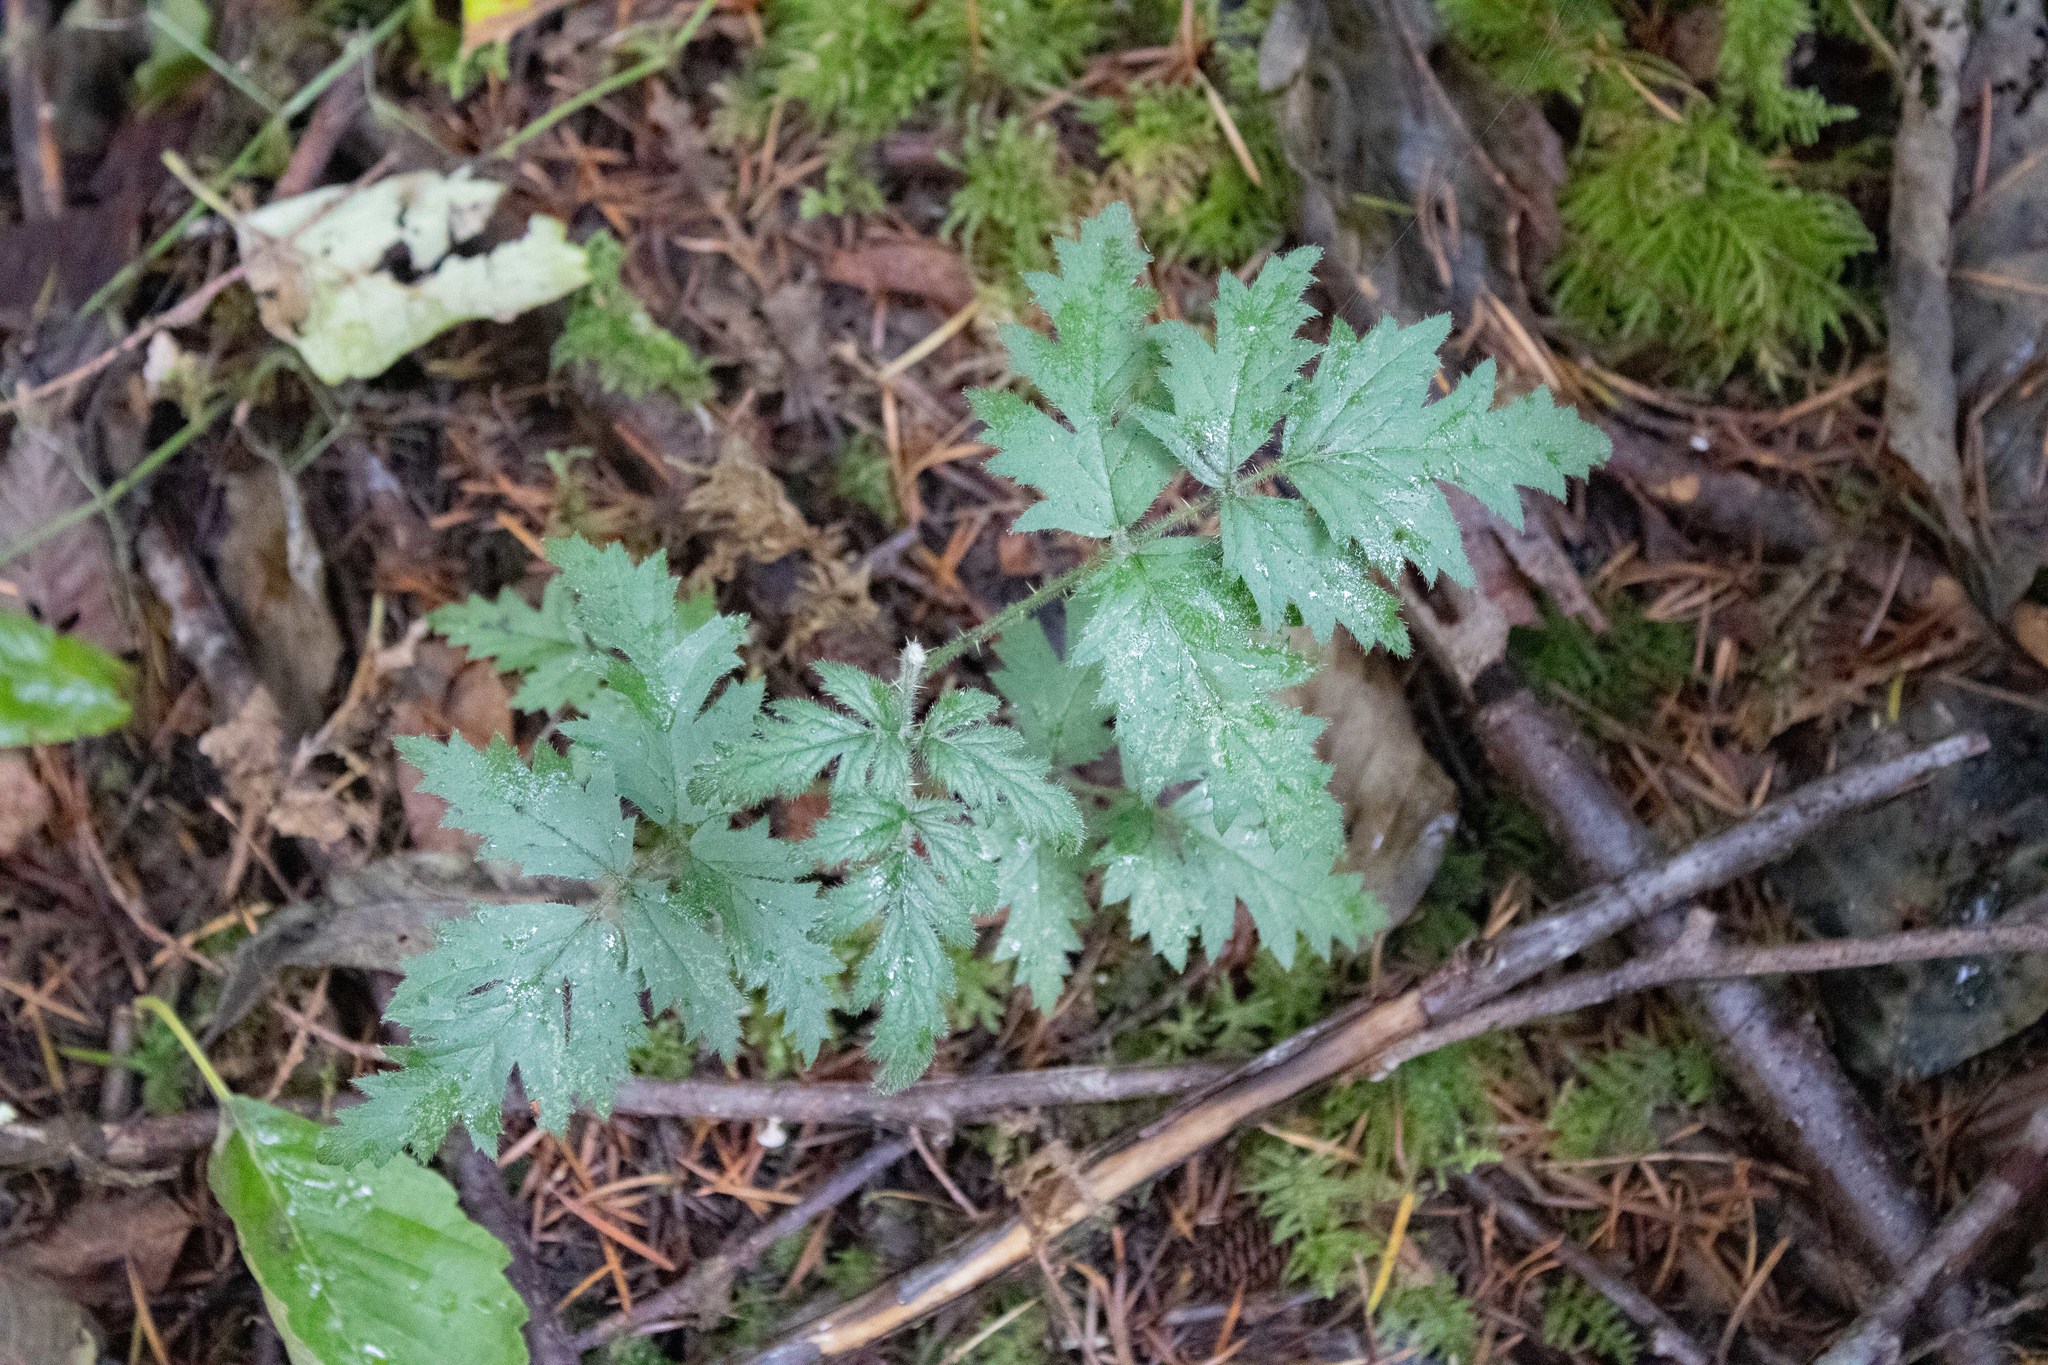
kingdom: Plantae
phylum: Tracheophyta
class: Magnoliopsida
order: Rosales
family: Rosaceae
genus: Rubus
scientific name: Rubus laciniatus
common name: Evergreen blackberry
